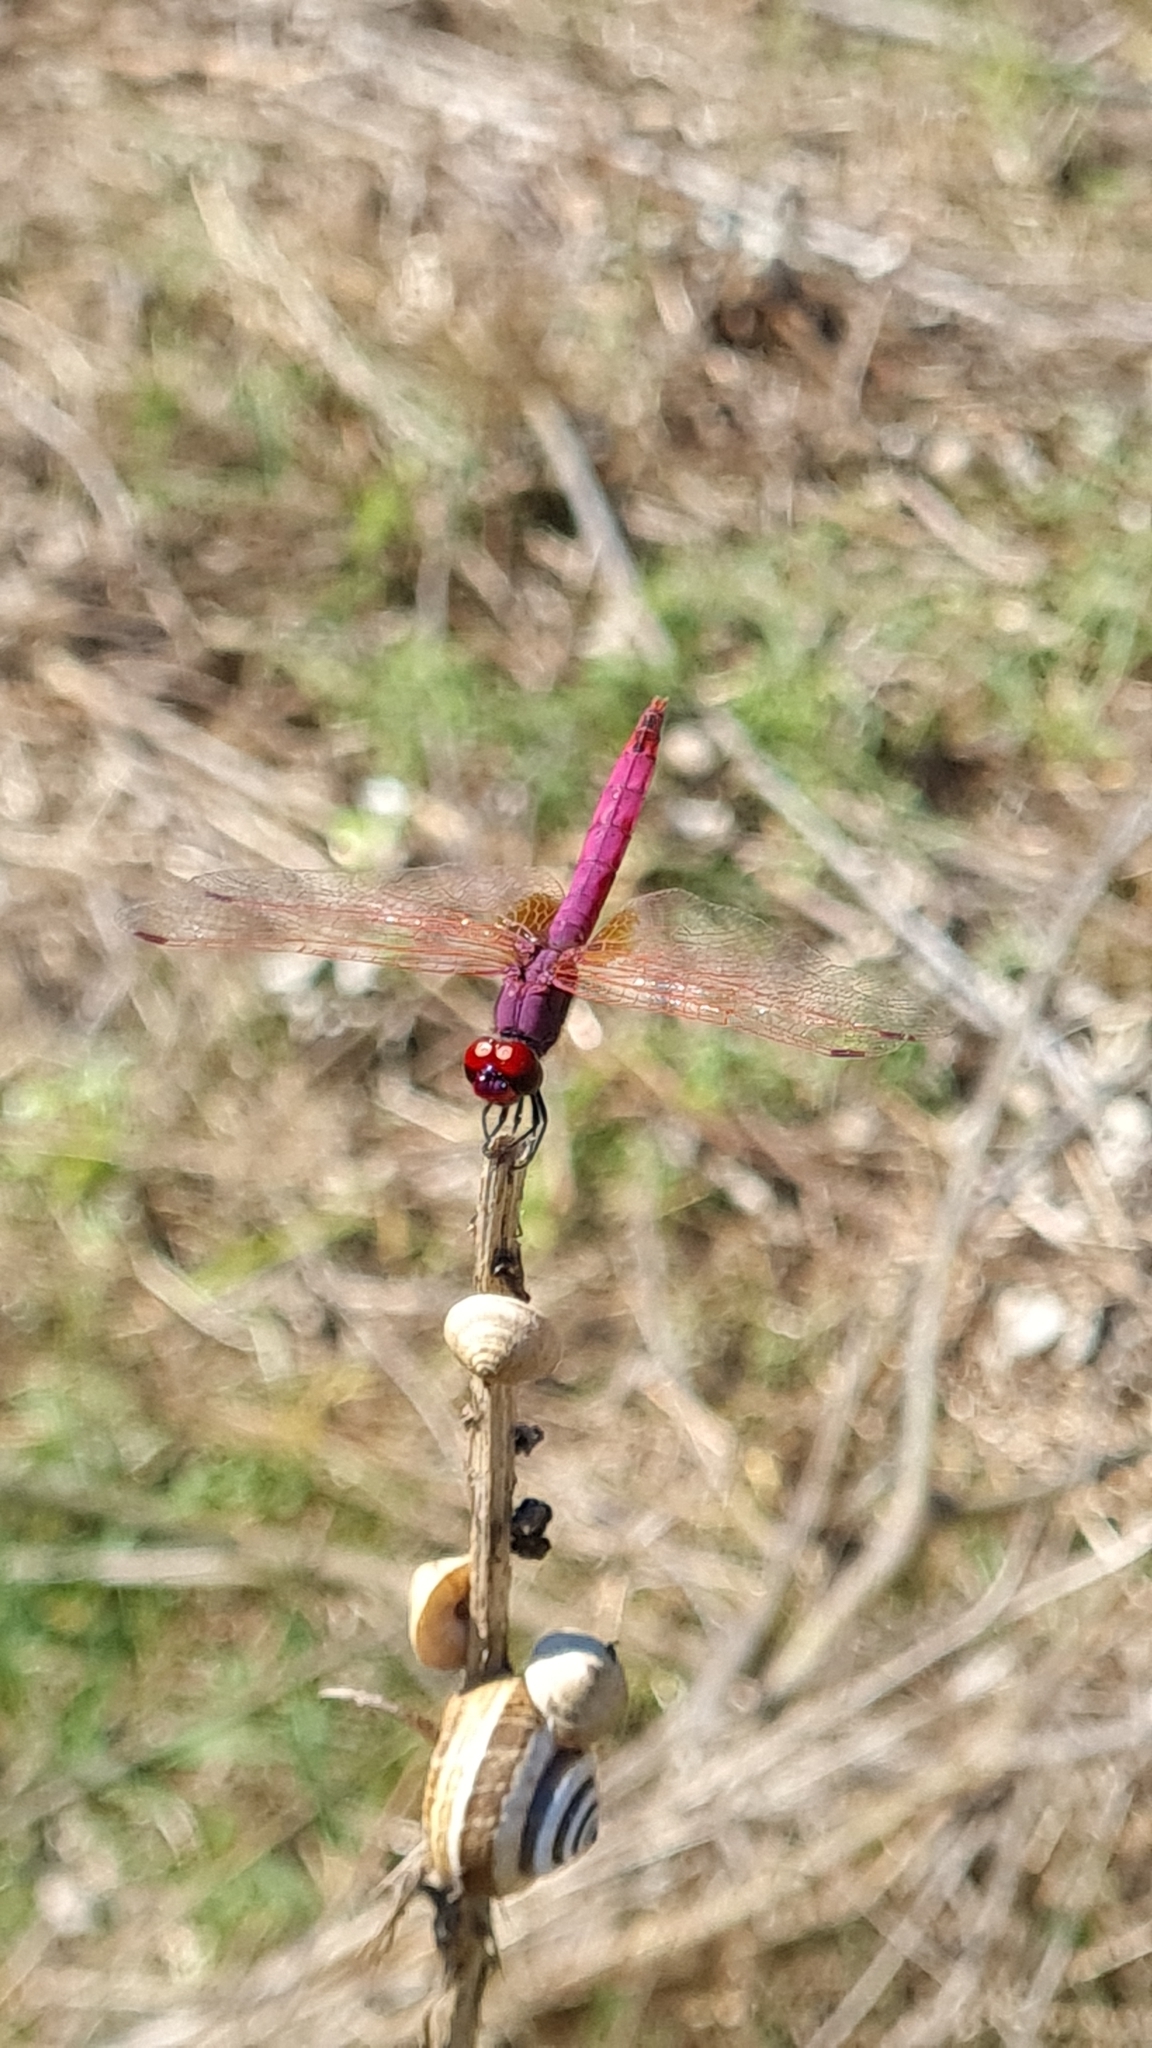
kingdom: Animalia
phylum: Arthropoda
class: Insecta
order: Odonata
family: Libellulidae
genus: Trithemis
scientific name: Trithemis annulata
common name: Violet dropwing
